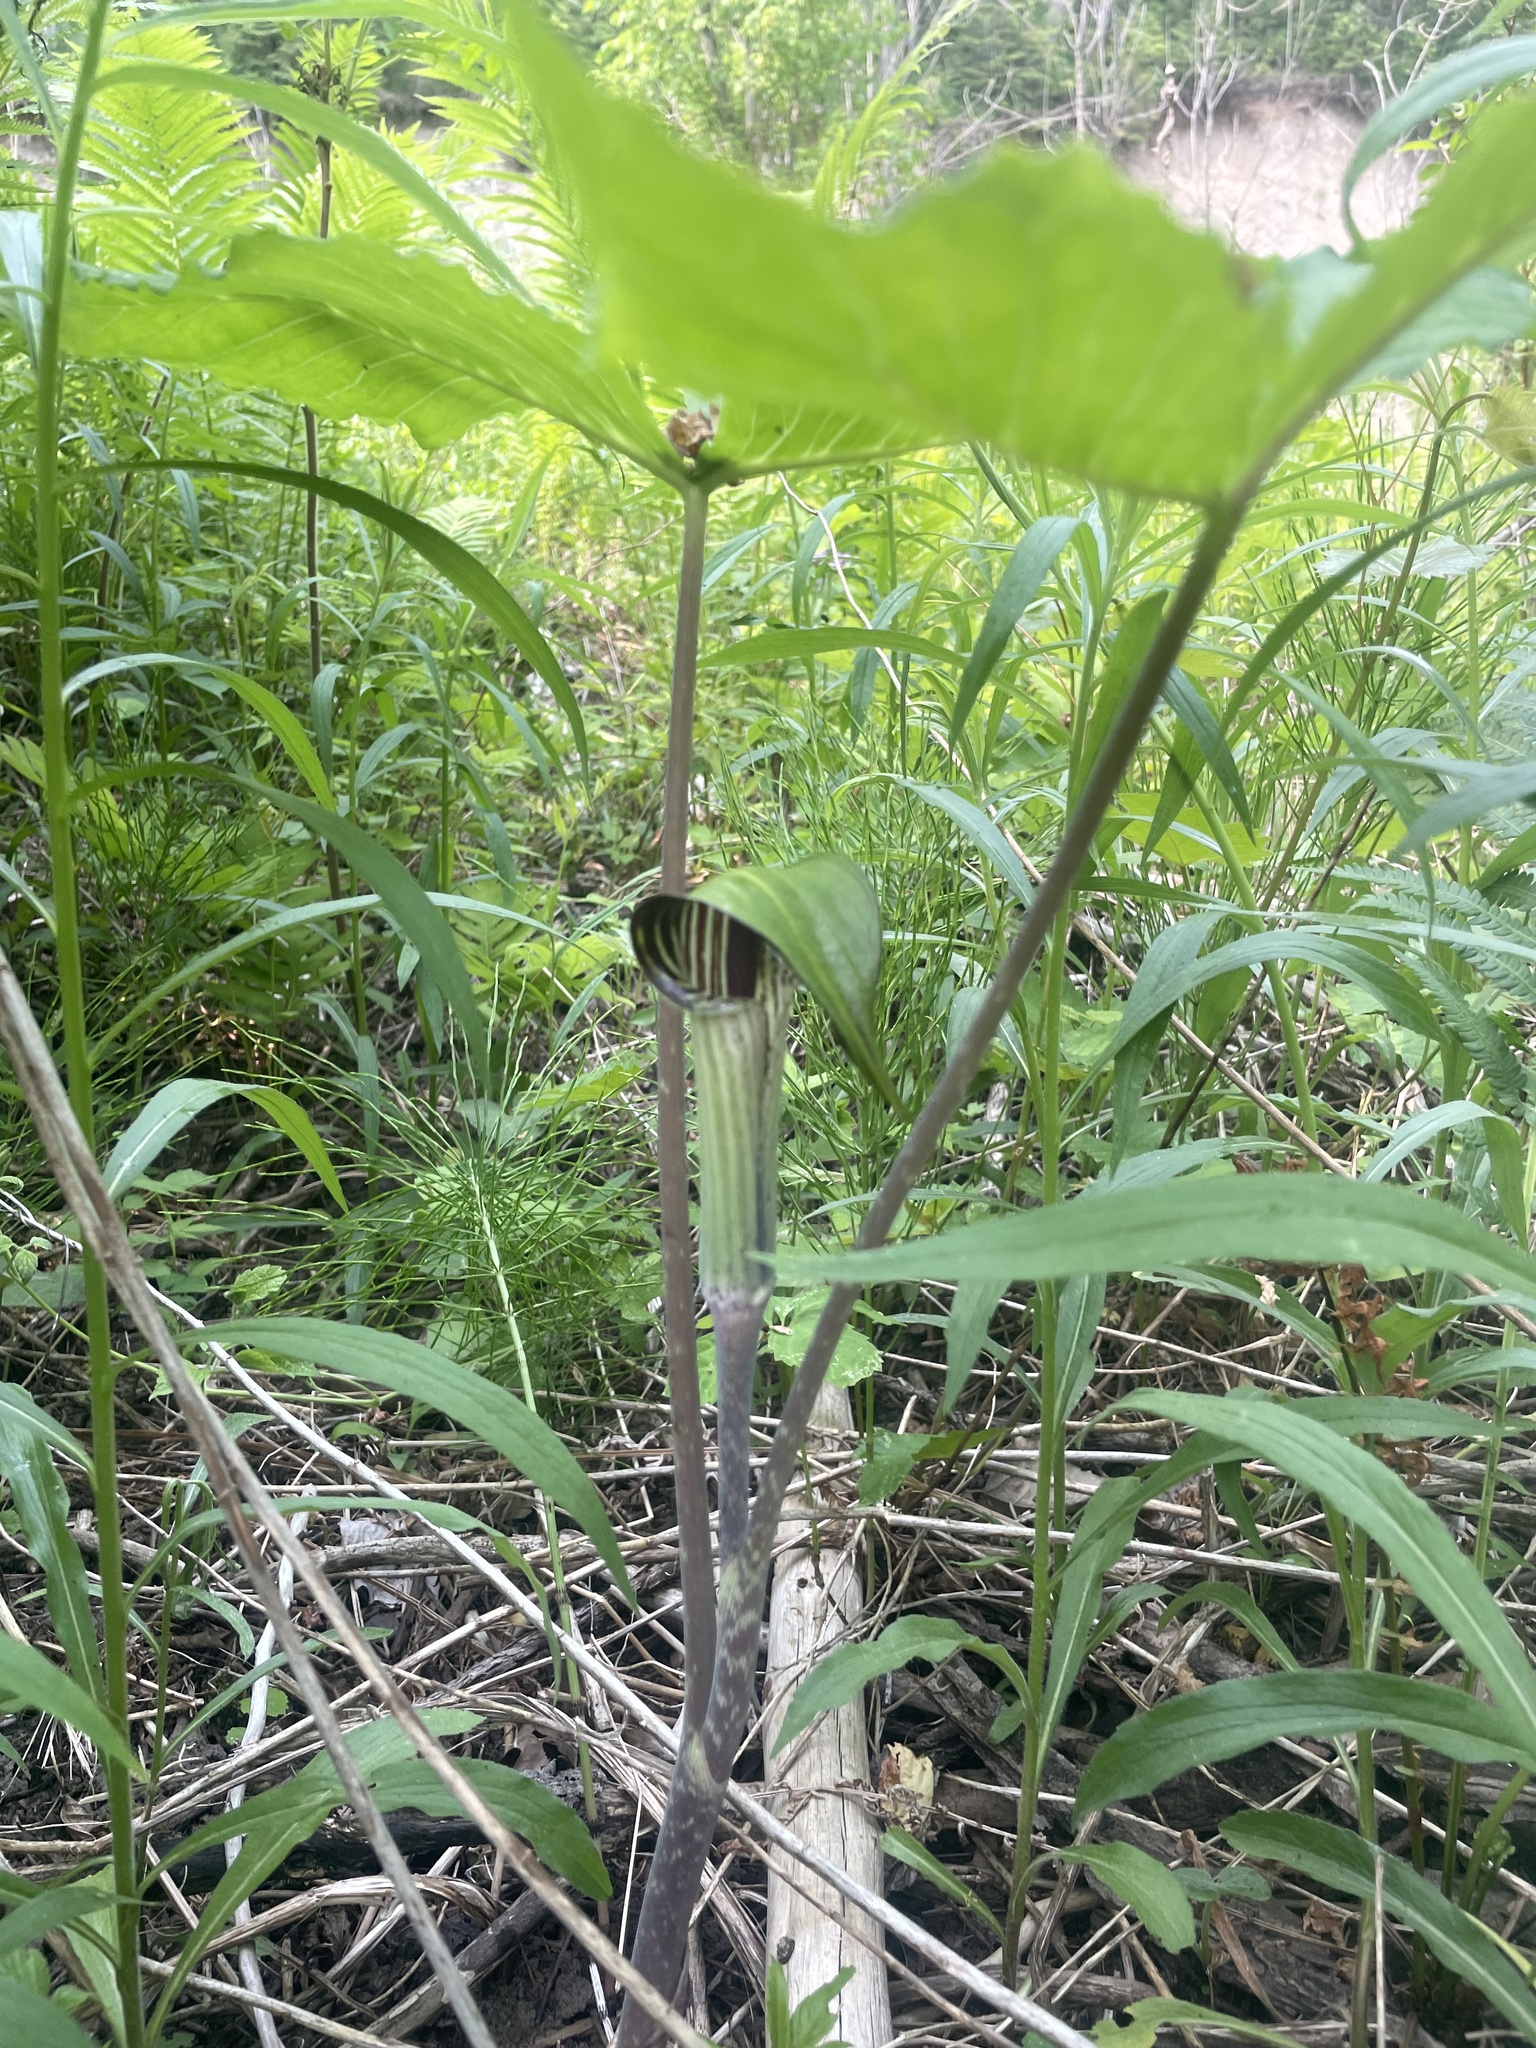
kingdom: Plantae
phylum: Tracheophyta
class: Liliopsida
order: Alismatales
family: Araceae
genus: Arisaema
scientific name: Arisaema triphyllum
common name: Jack-in-the-pulpit
